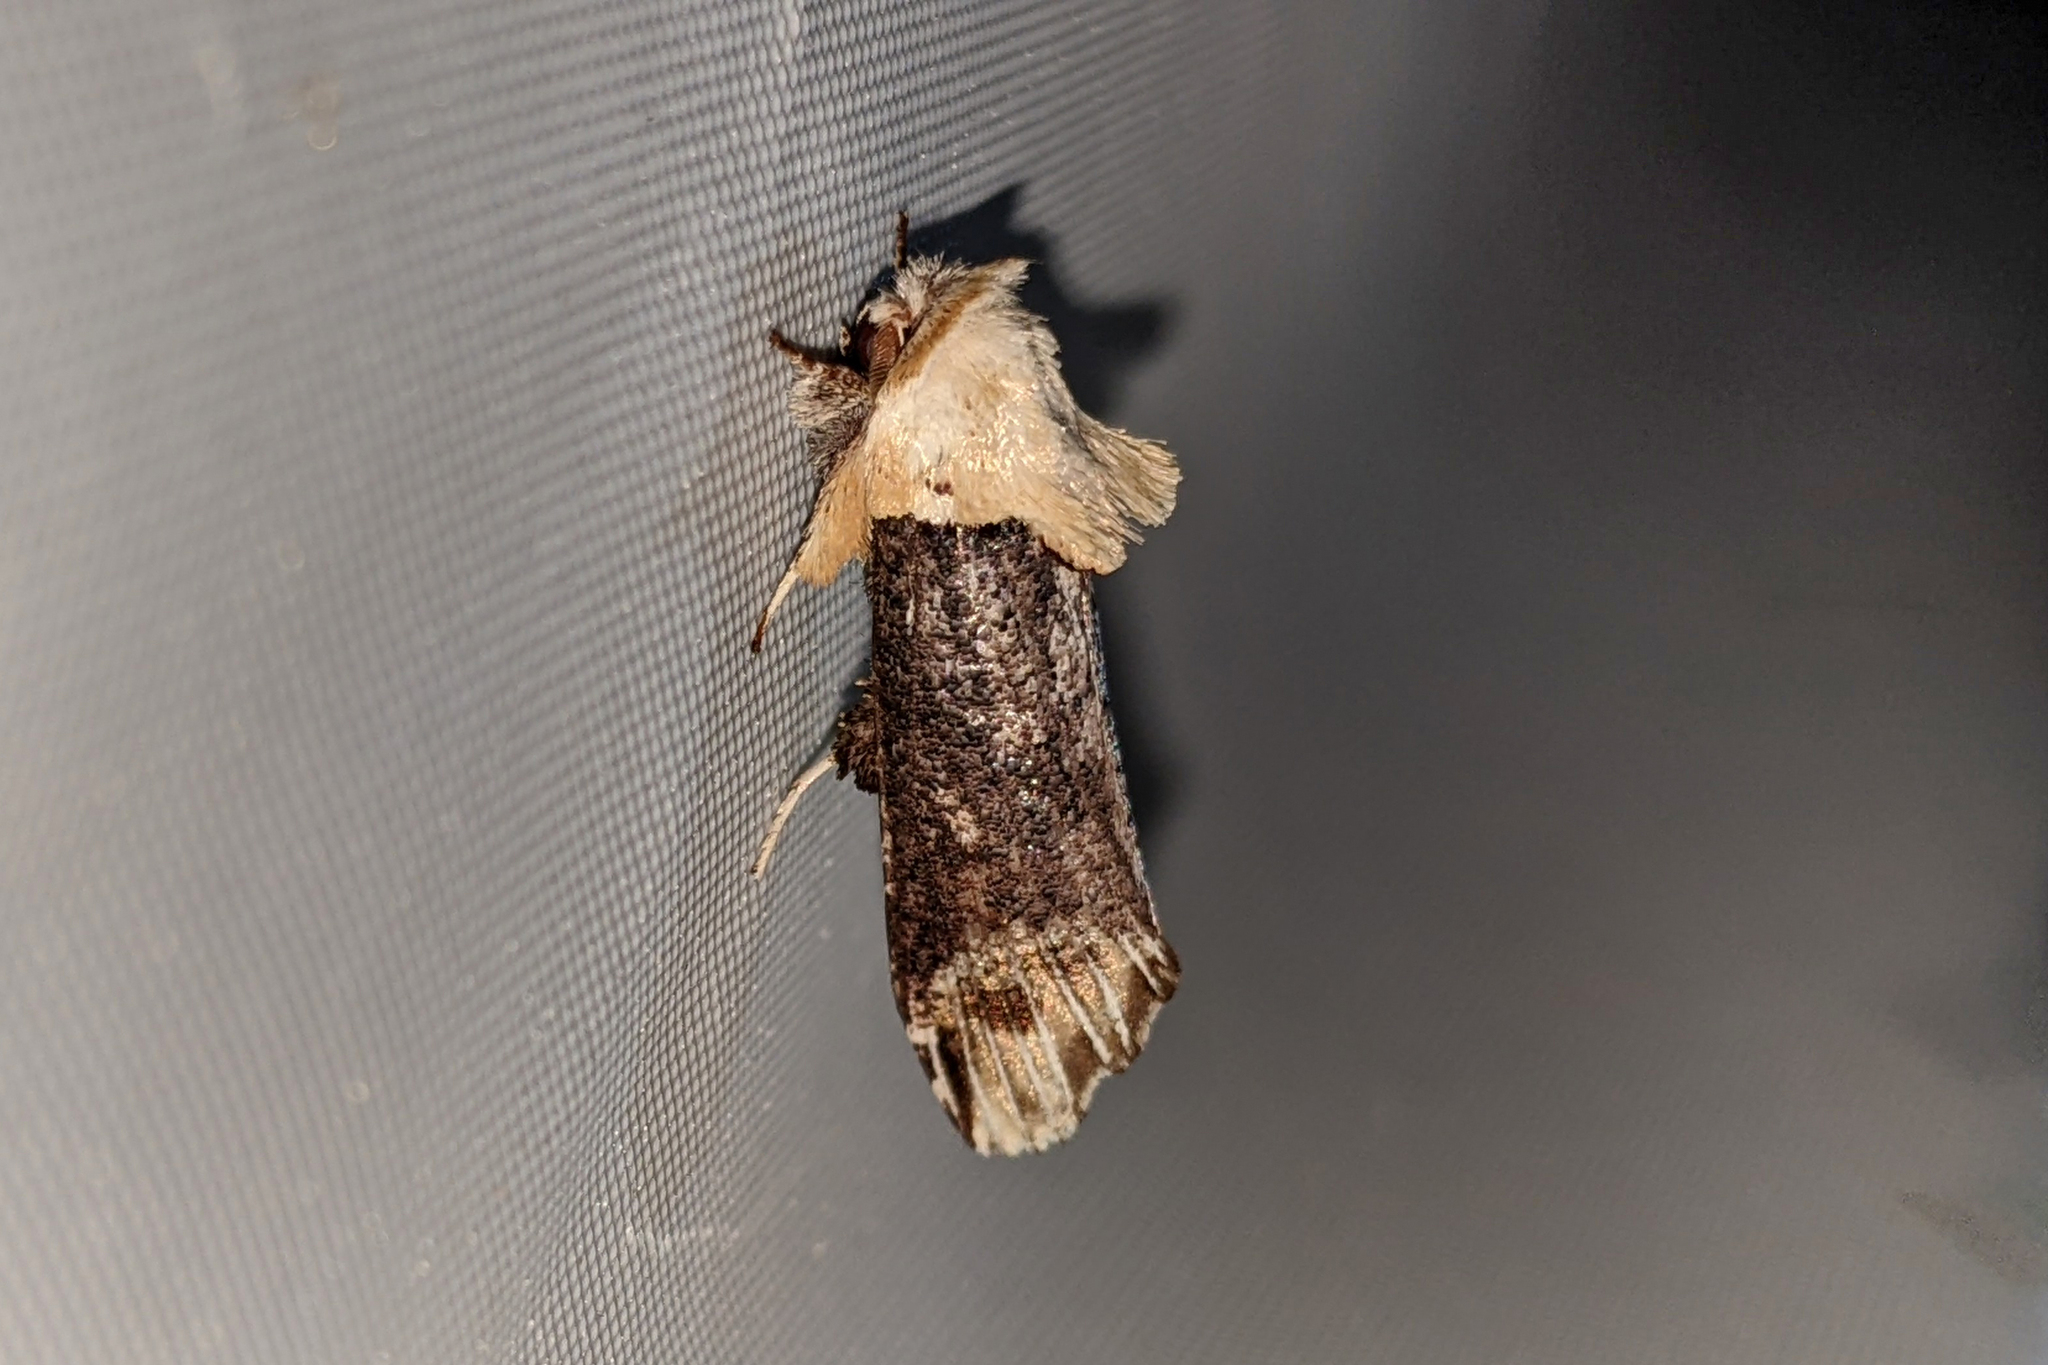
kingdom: Animalia
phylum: Arthropoda
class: Insecta
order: Lepidoptera
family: Dudgeoneidae
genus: Magulacra
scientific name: Magulacra niveogrisea
